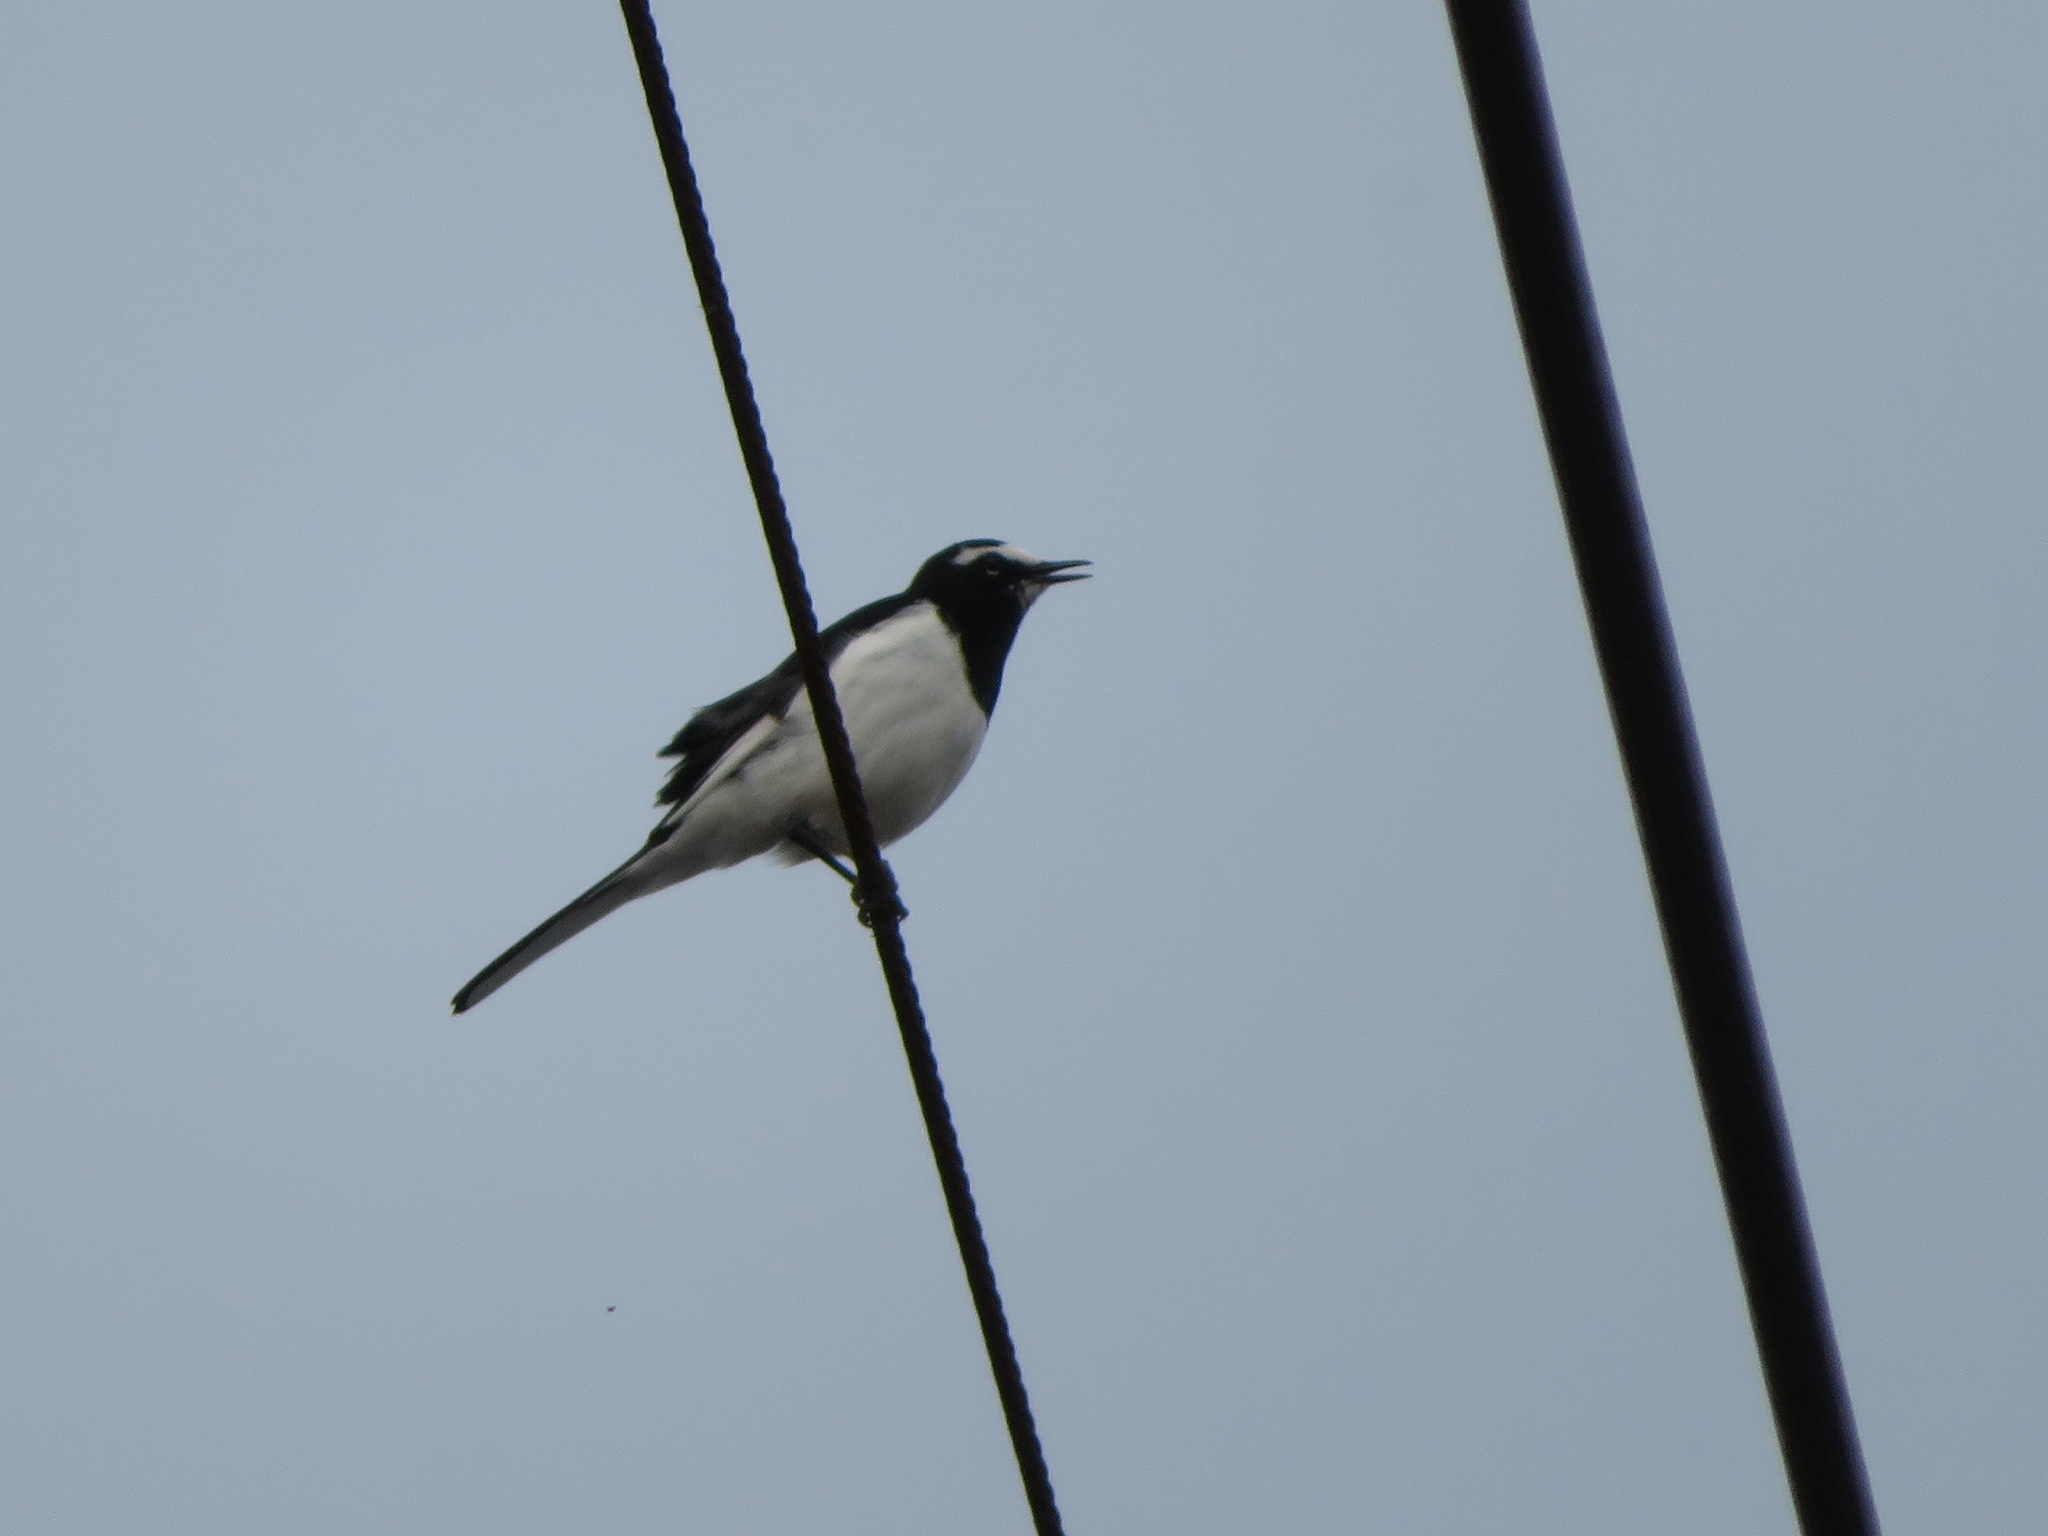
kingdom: Animalia
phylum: Chordata
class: Aves
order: Passeriformes
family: Motacillidae
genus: Motacilla
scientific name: Motacilla grandis
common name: Japanese wagtail
